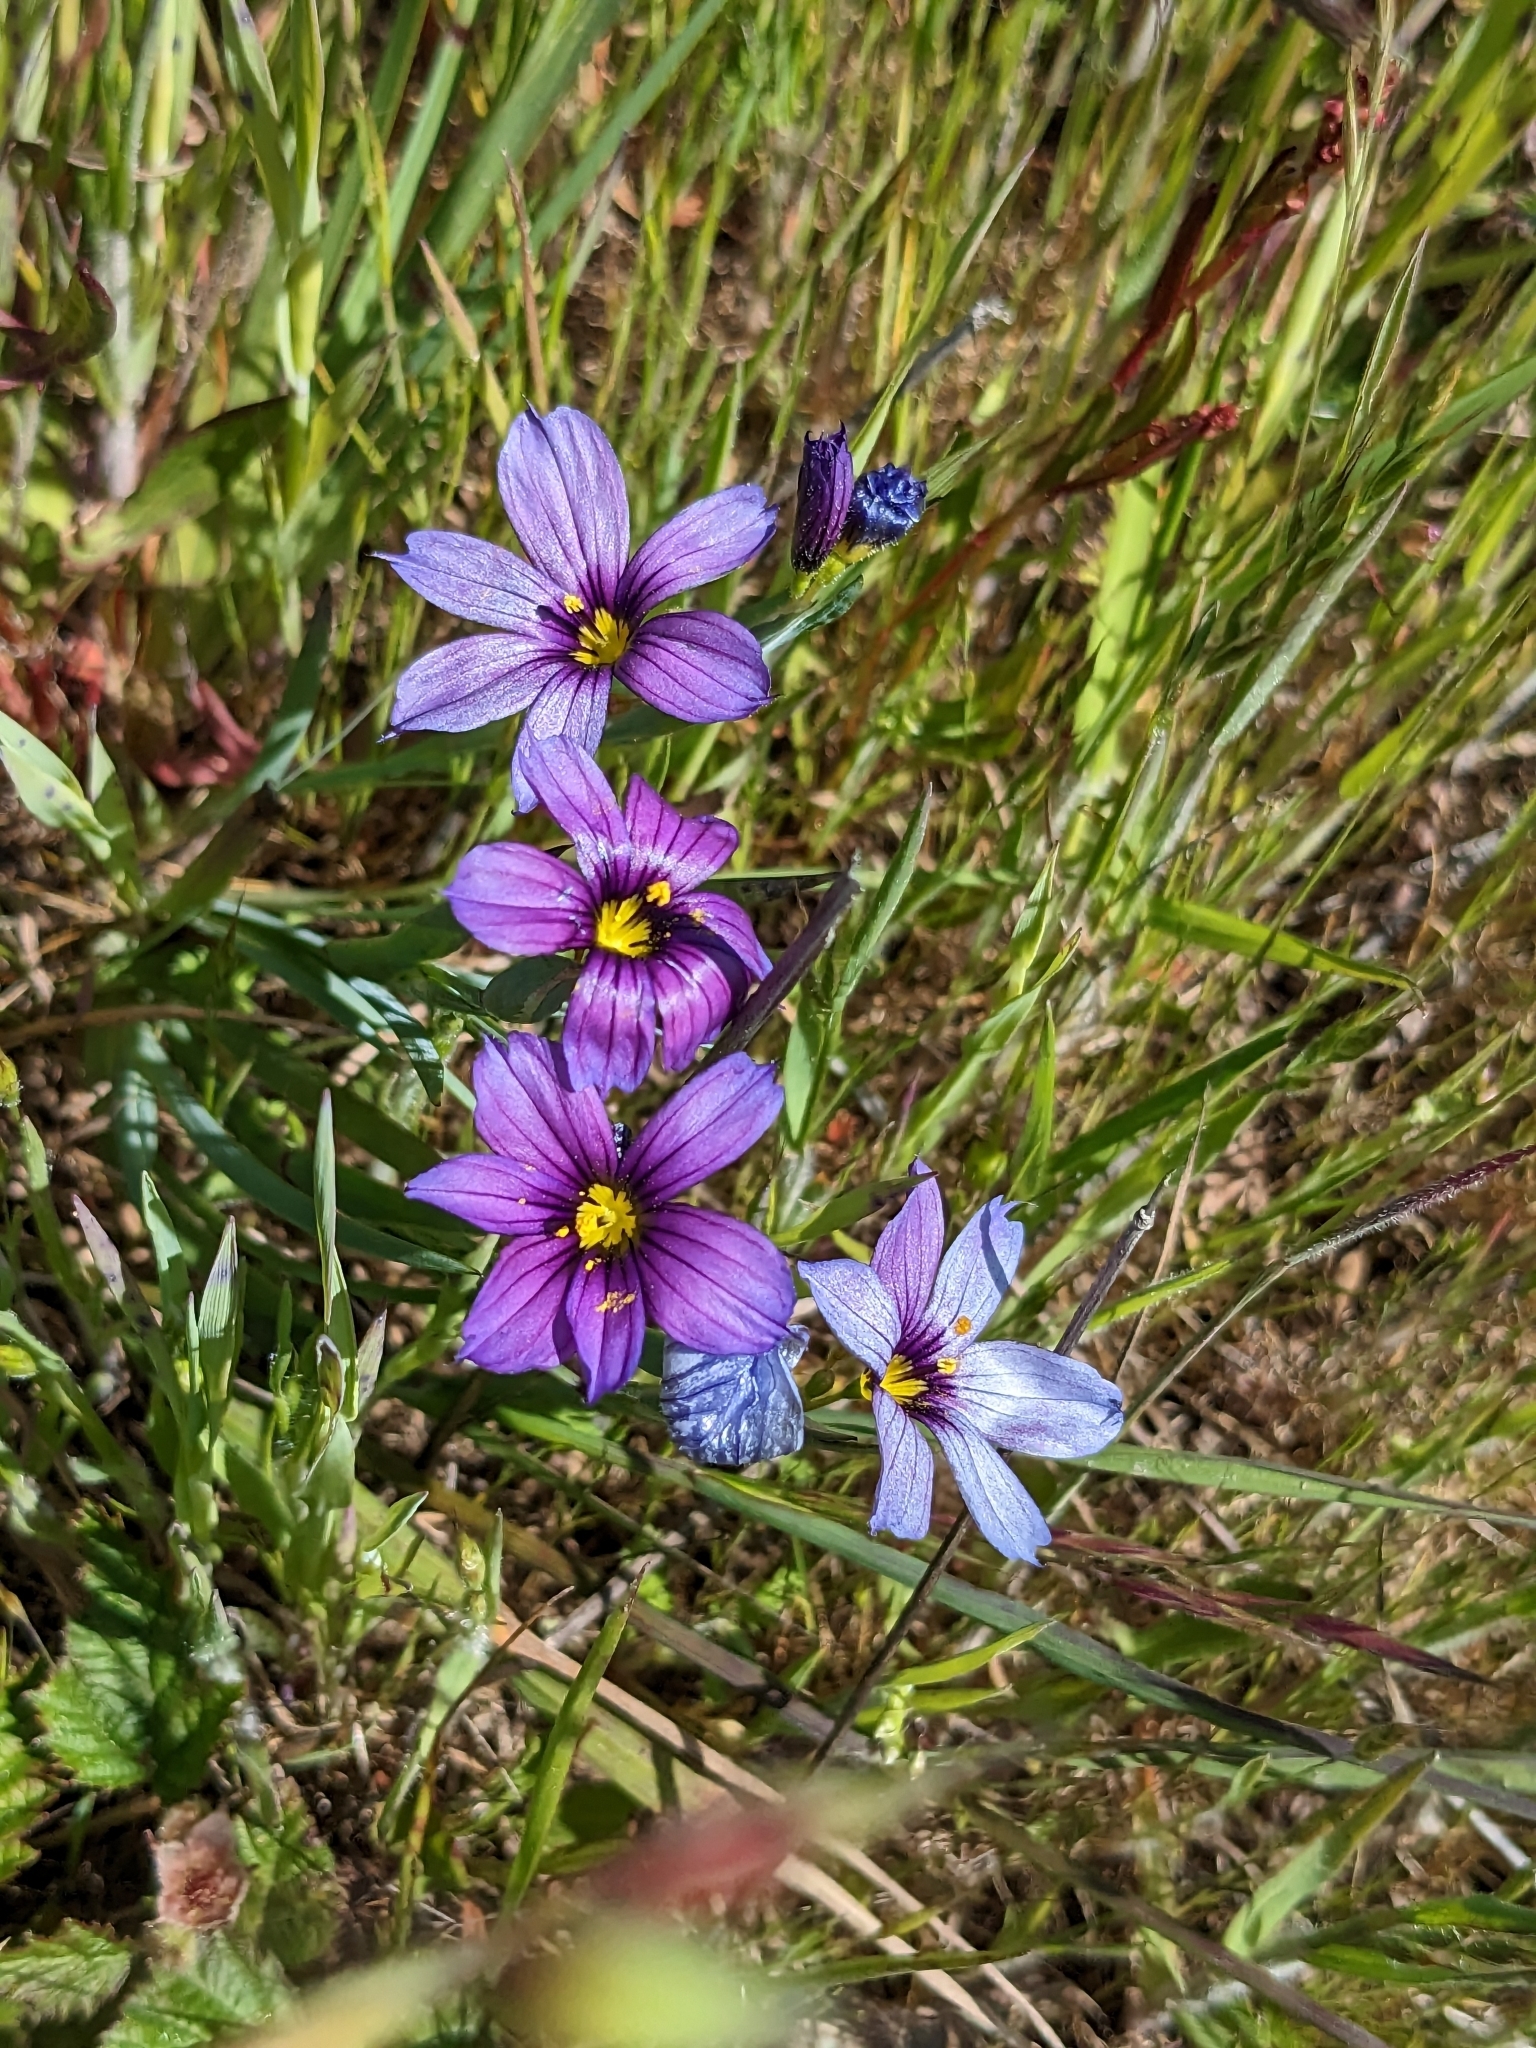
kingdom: Plantae
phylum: Tracheophyta
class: Liliopsida
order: Asparagales
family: Iridaceae
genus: Sisyrinchium
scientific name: Sisyrinchium bellum
